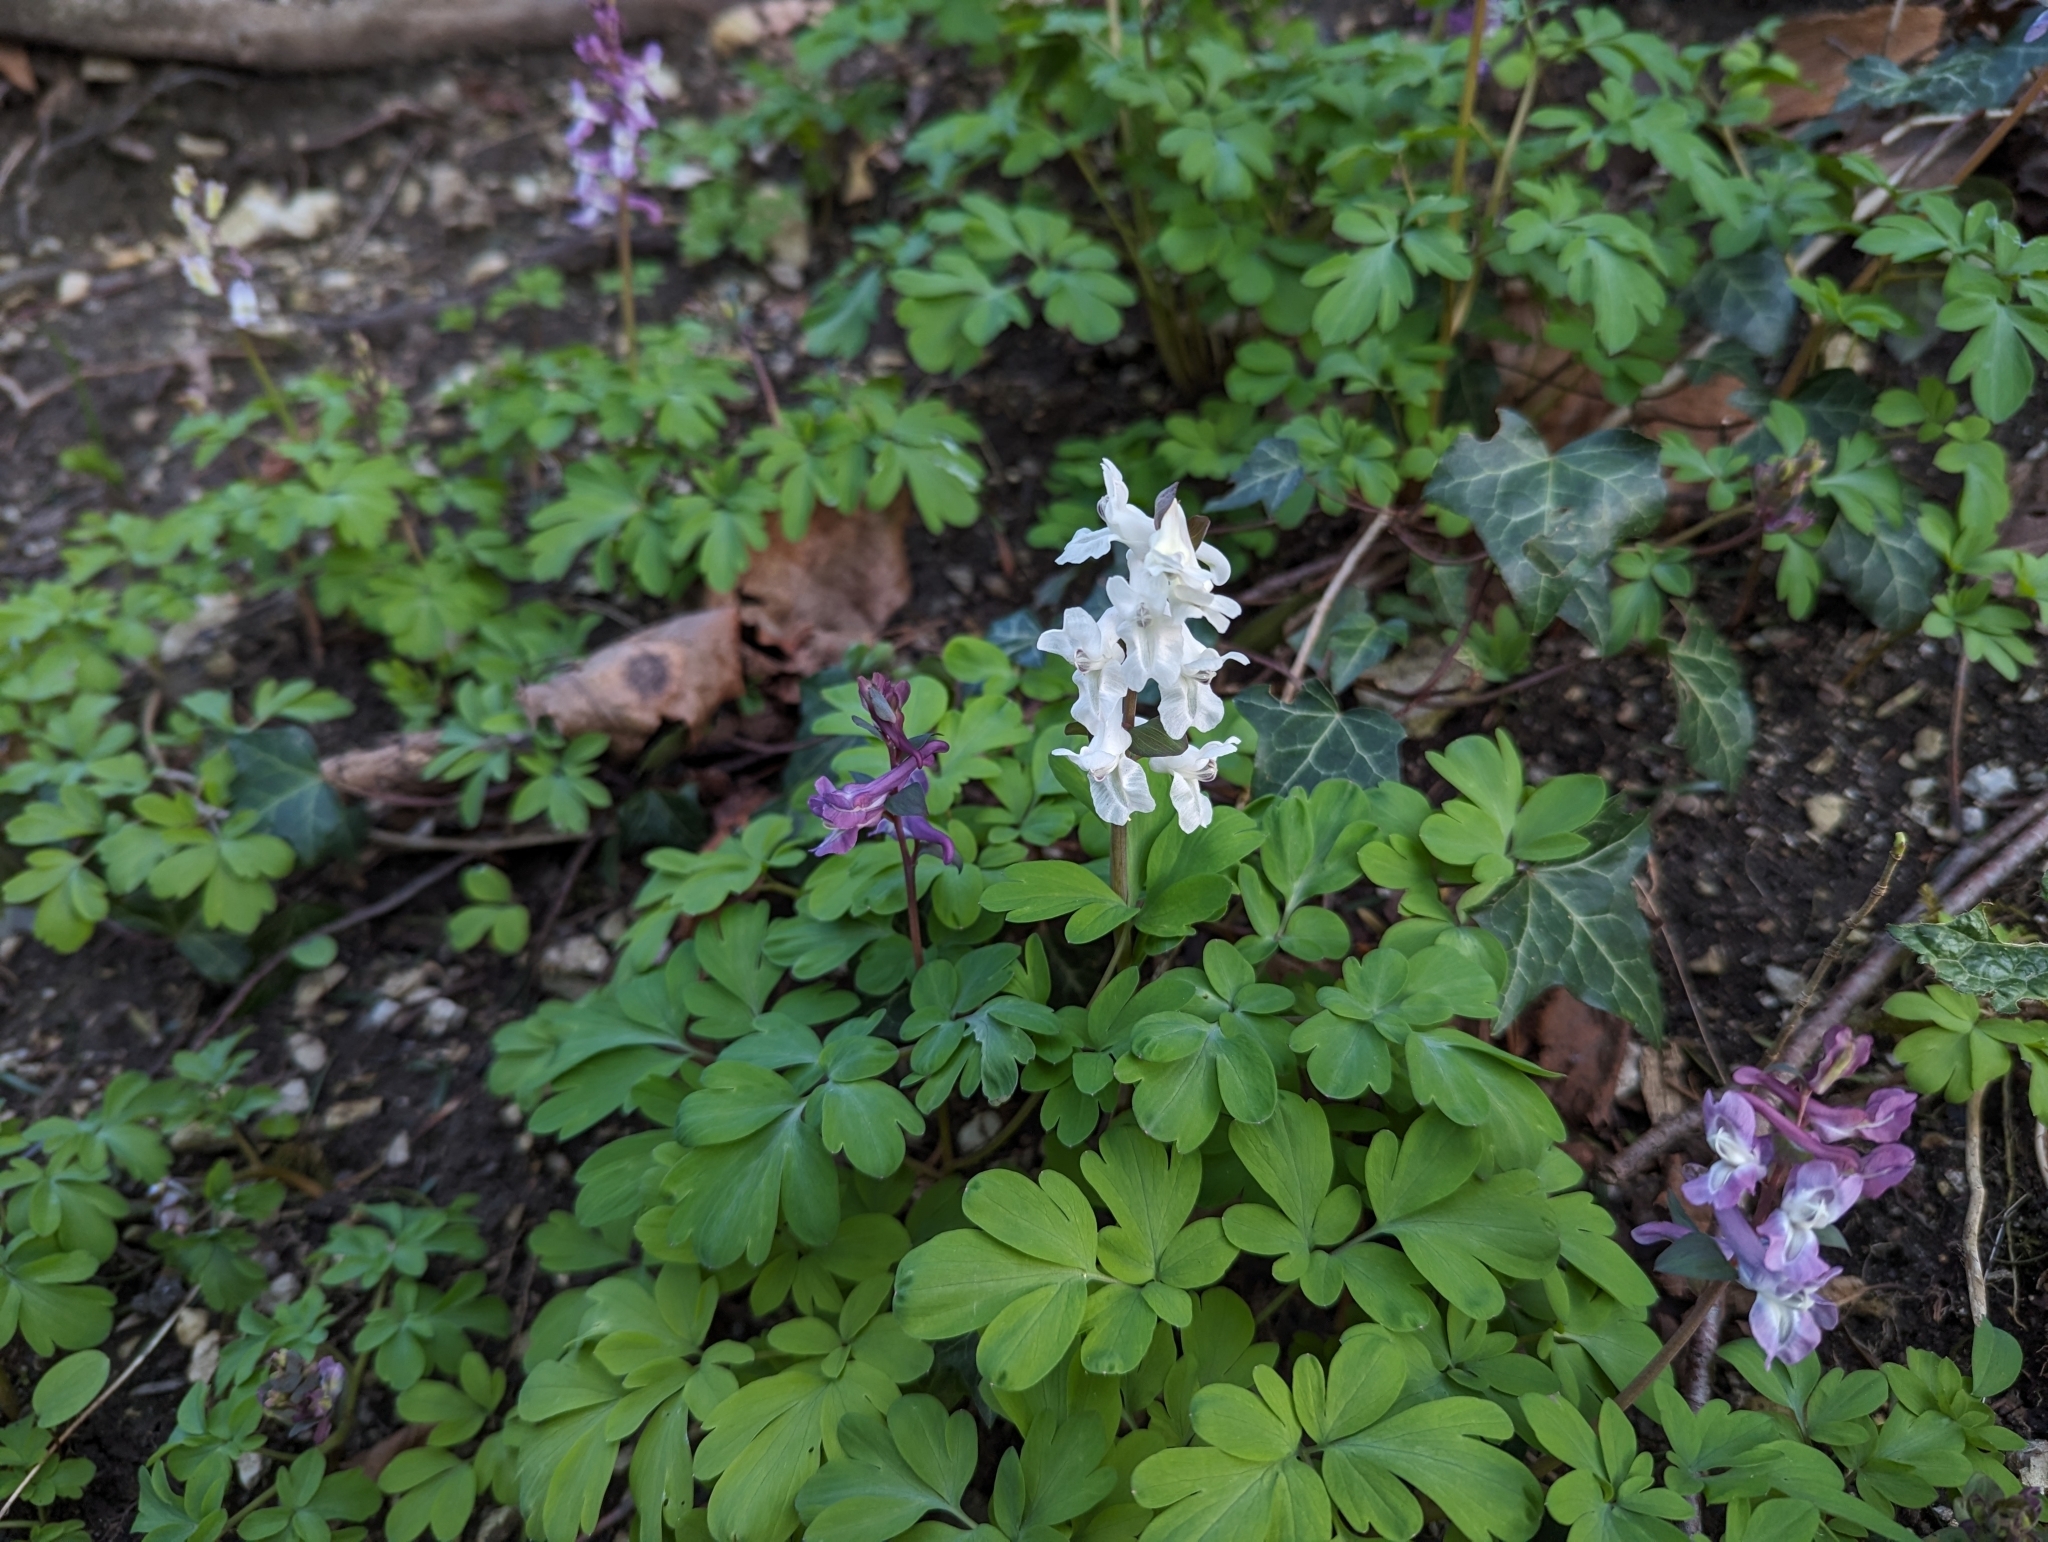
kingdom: Plantae
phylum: Tracheophyta
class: Magnoliopsida
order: Ranunculales
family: Papaveraceae
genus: Corydalis
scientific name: Corydalis cava
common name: Hollowroot
